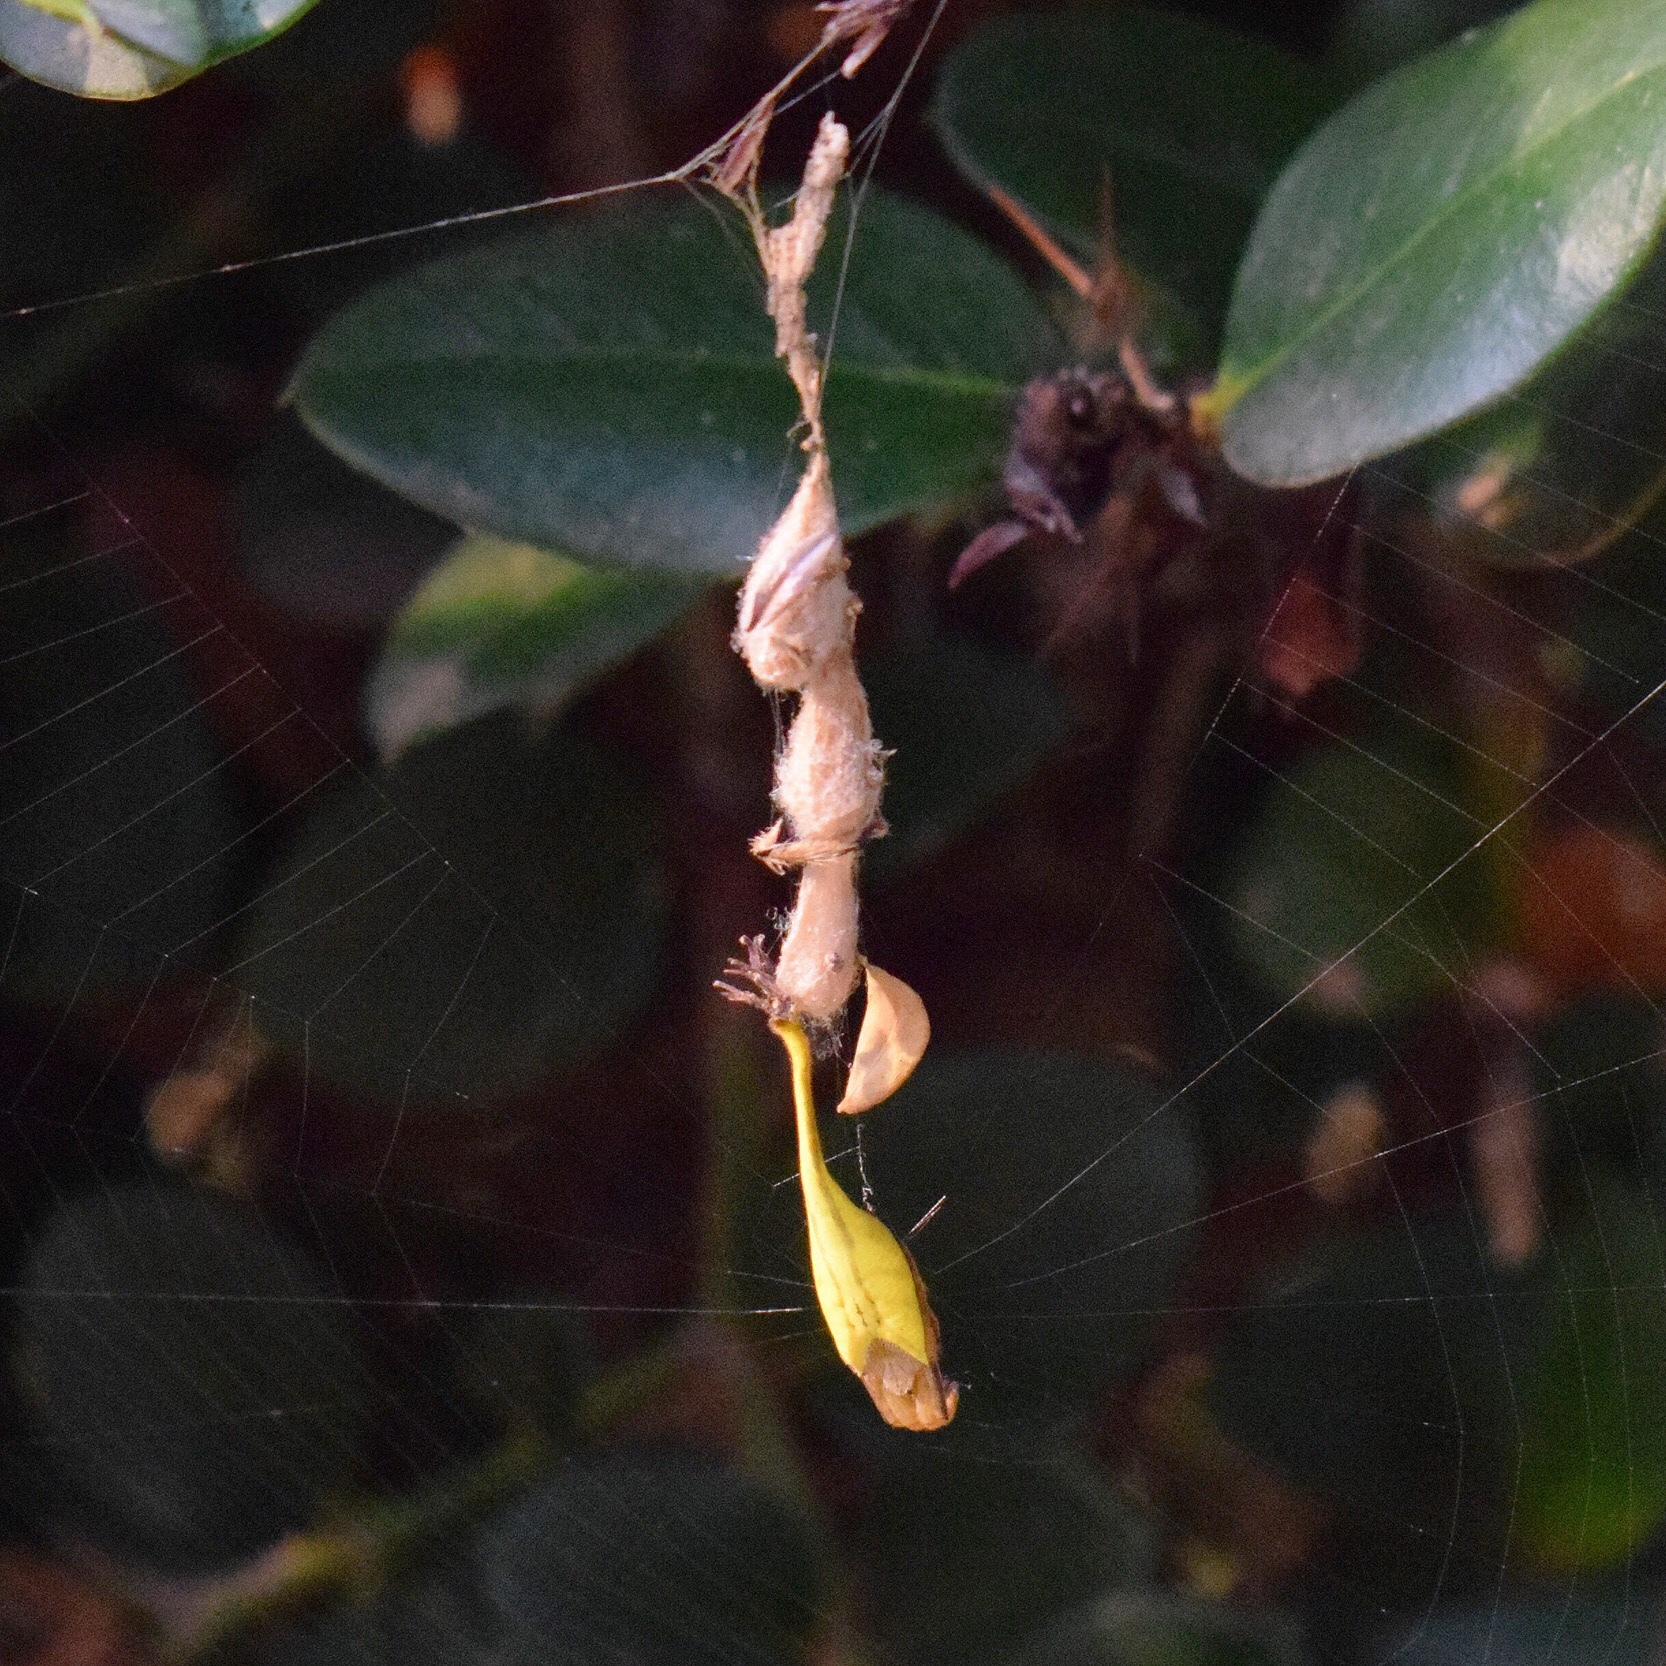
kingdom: Animalia
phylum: Arthropoda
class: Arachnida
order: Araneae
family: Araneidae
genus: Arachnura
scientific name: Arachnura scorpionoides
